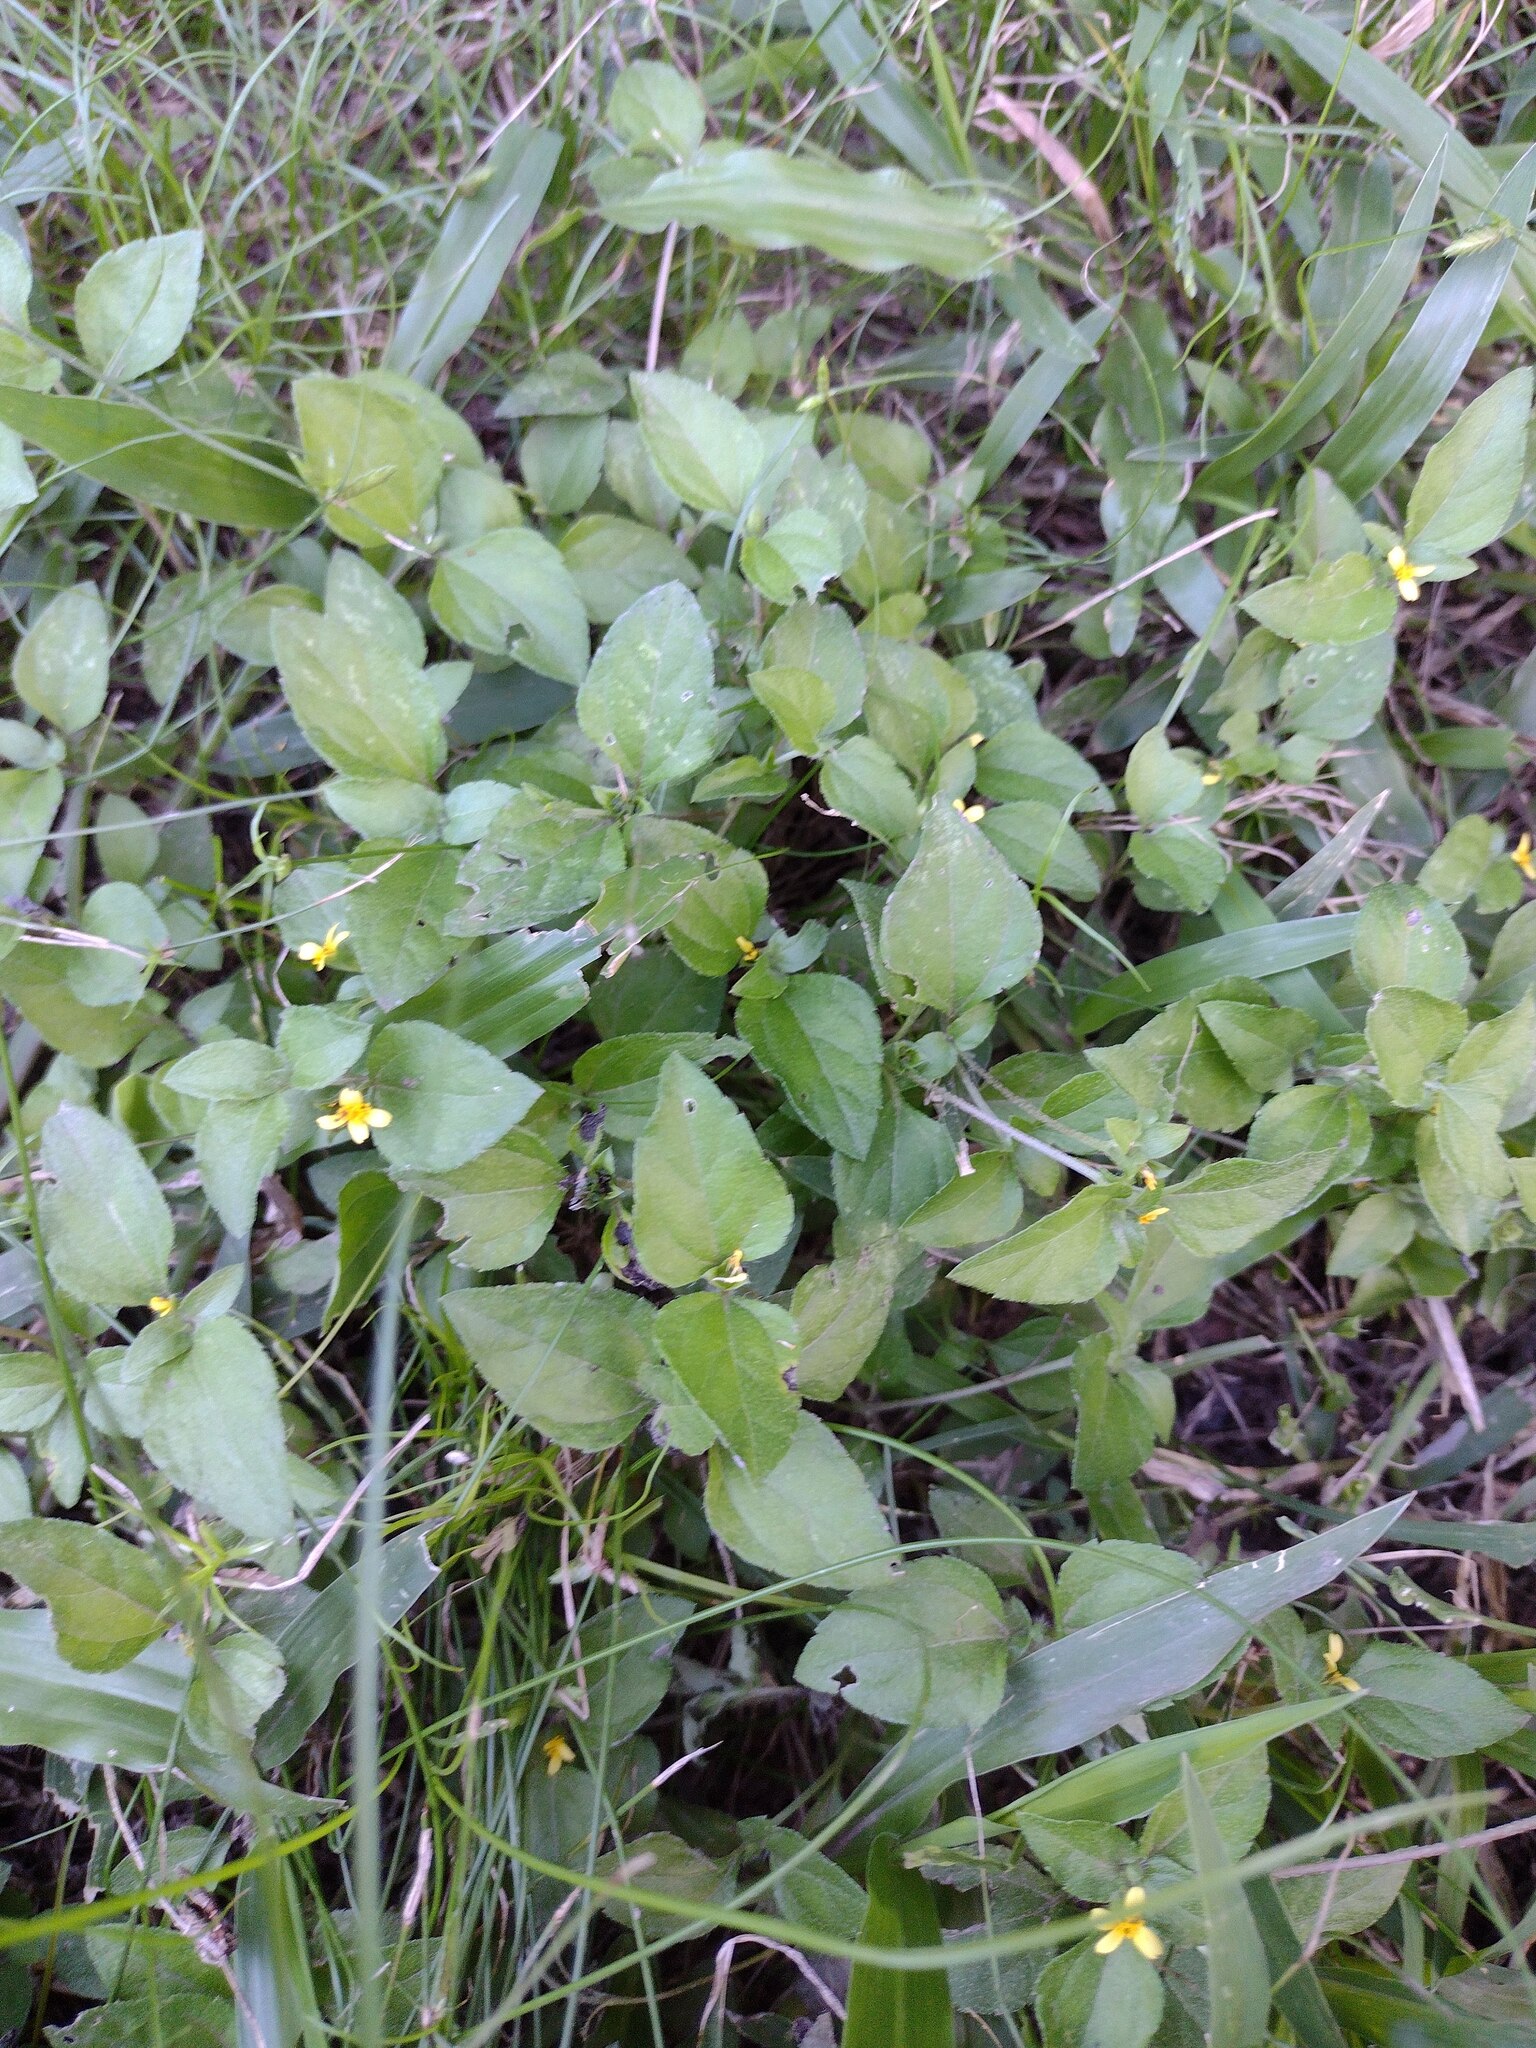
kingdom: Plantae
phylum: Tracheophyta
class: Magnoliopsida
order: Asterales
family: Asteraceae
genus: Calyptocarpus
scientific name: Calyptocarpus vialis
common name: Straggler daisy
